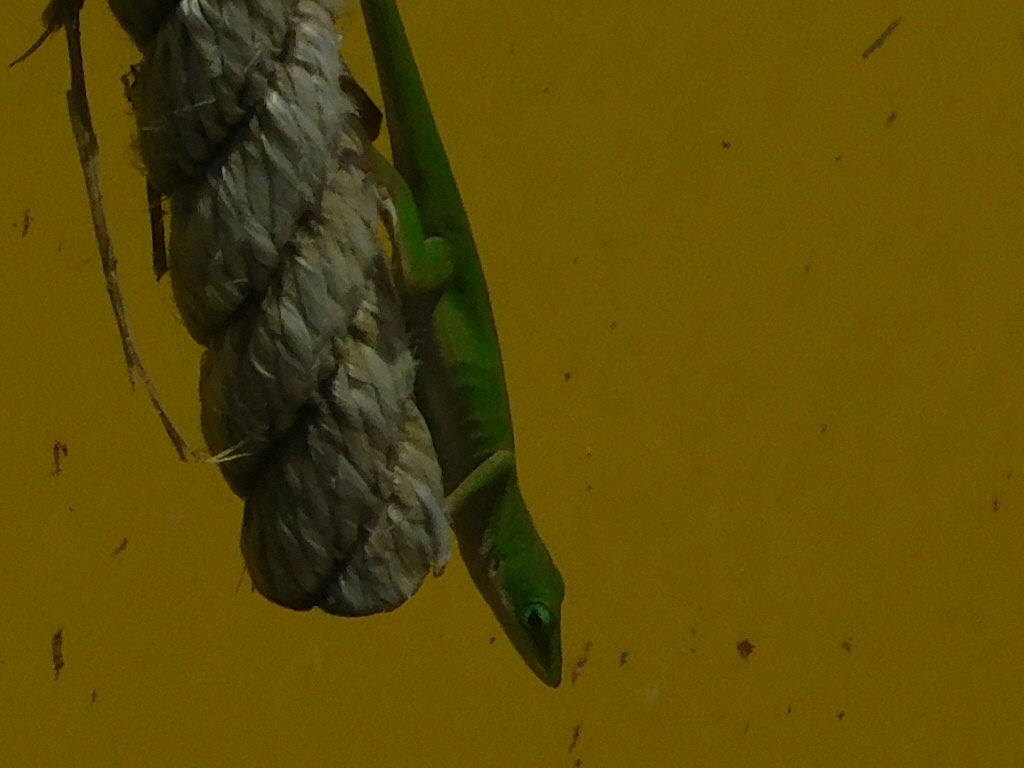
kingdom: Animalia
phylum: Chordata
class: Squamata
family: Dactyloidae
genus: Anolis
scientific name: Anolis carolinensis
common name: Green anole
